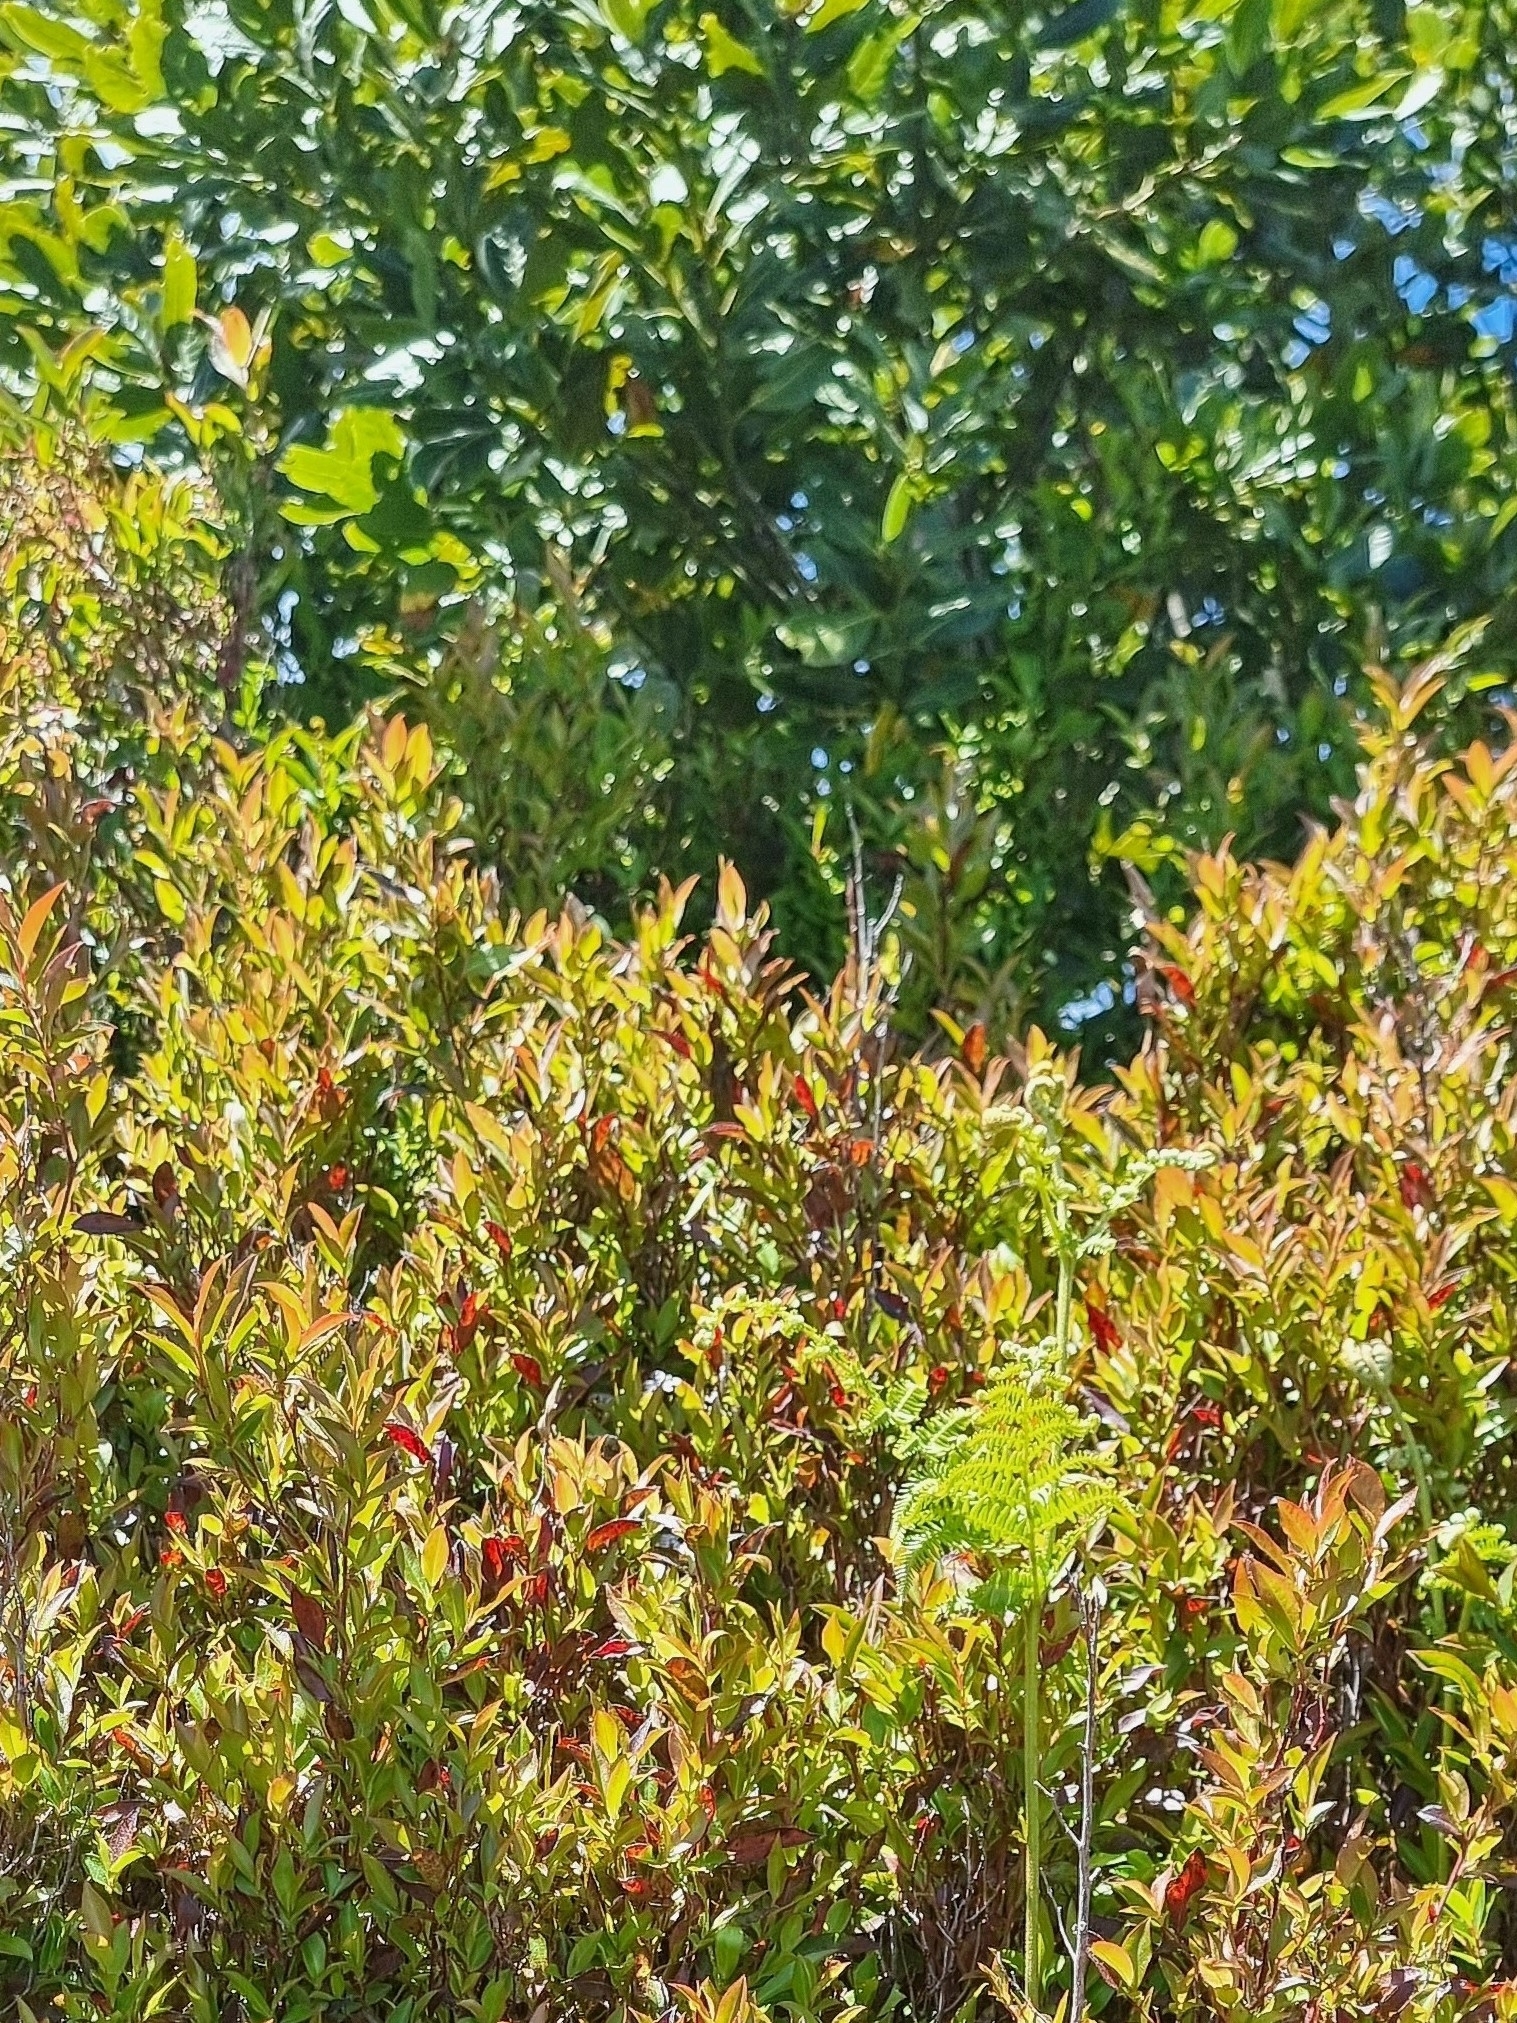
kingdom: Plantae
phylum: Tracheophyta
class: Magnoliopsida
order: Ericales
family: Ericaceae
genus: Vaccinium
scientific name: Vaccinium padifolium
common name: Madeiran blueberry
